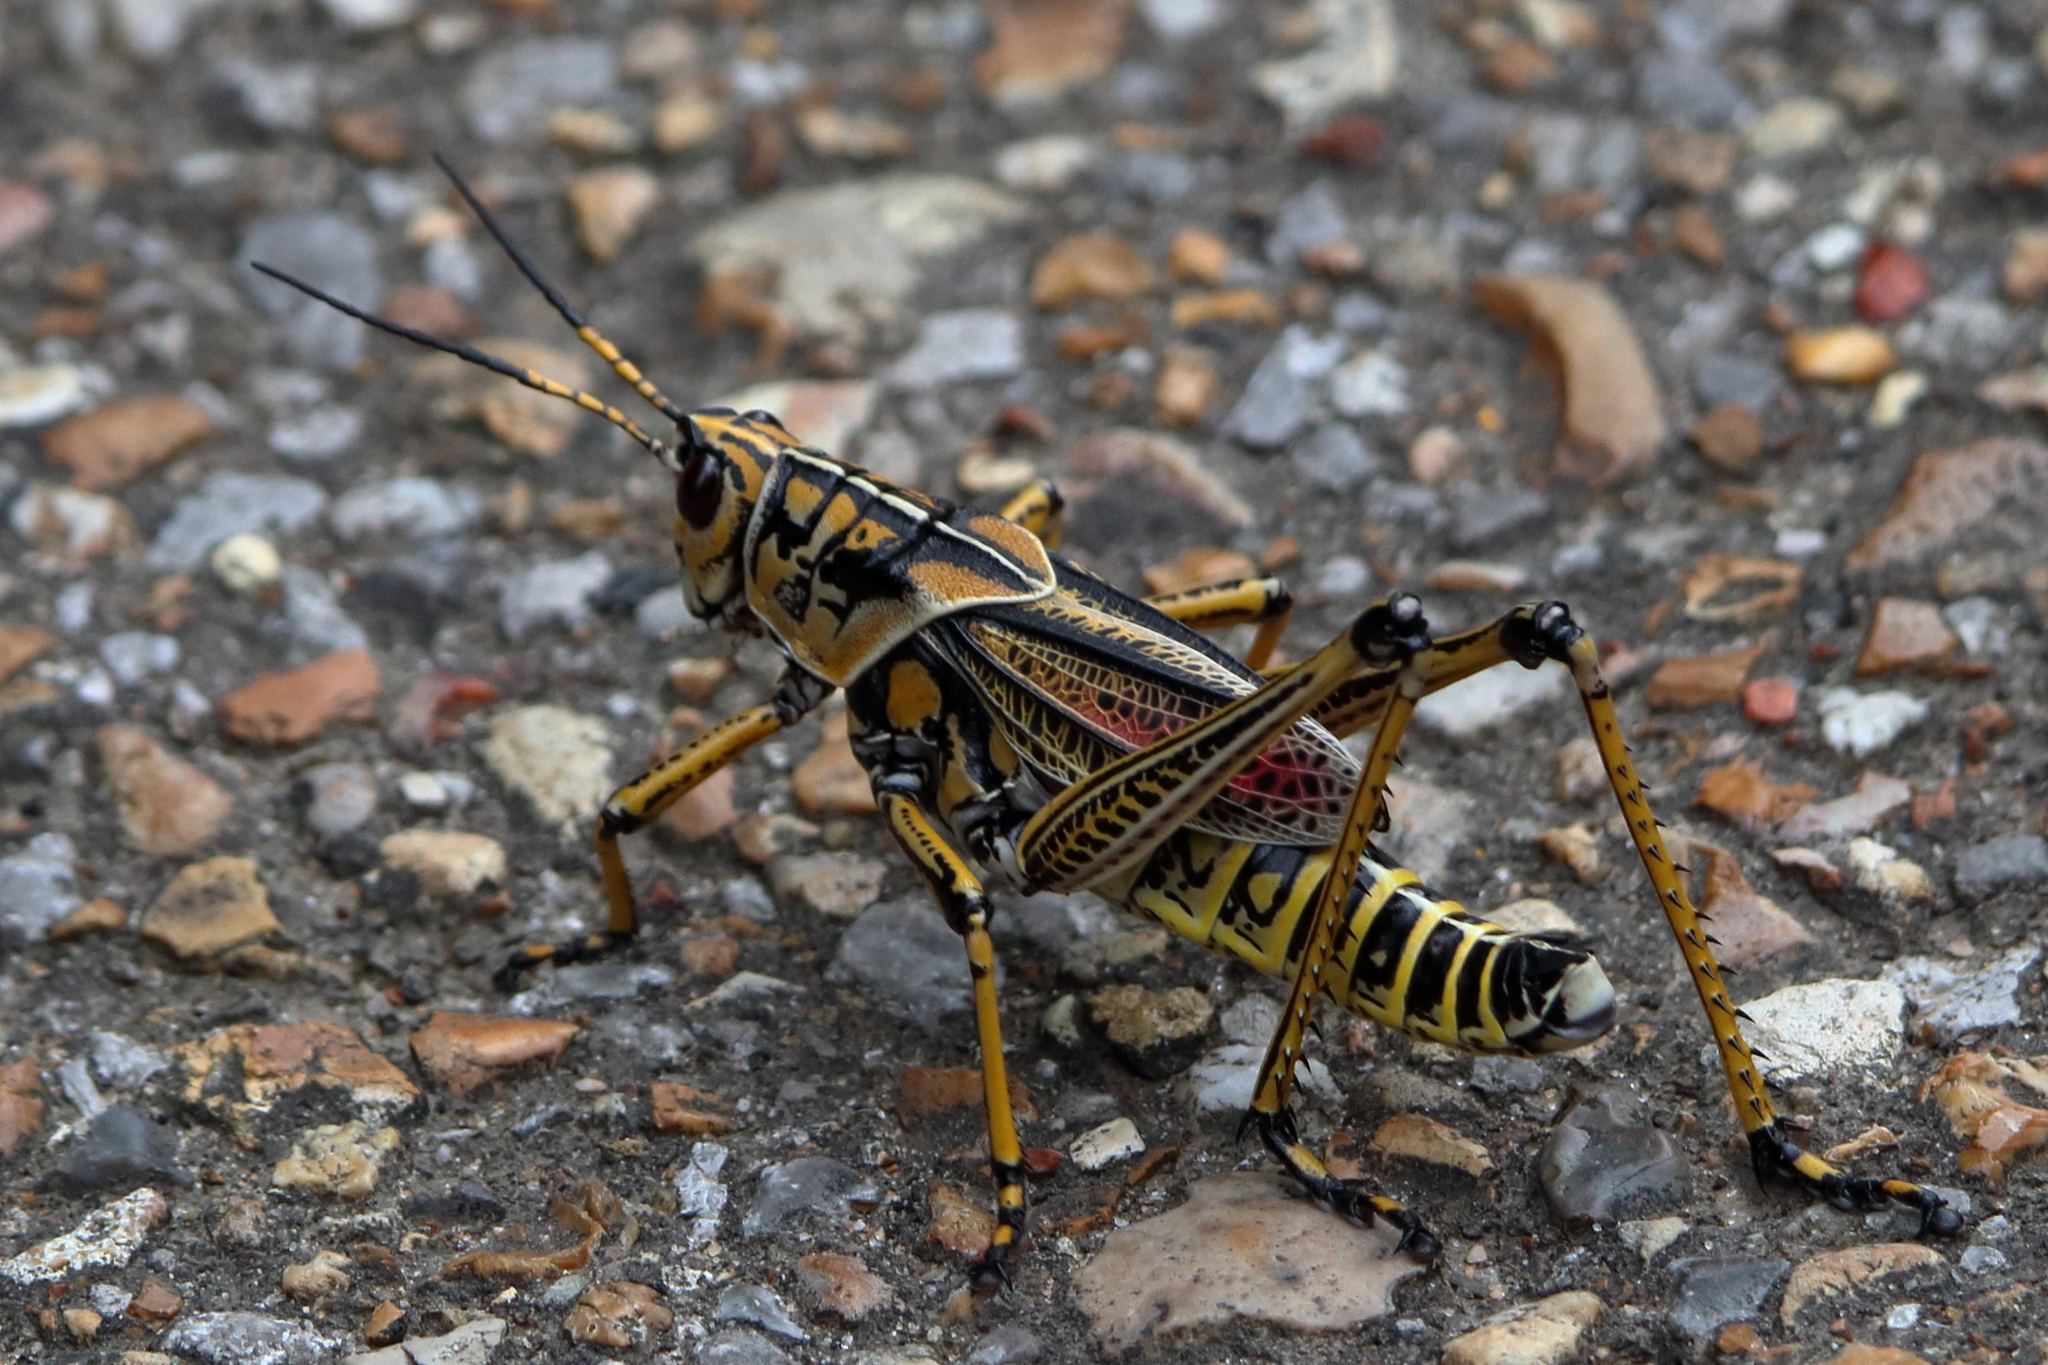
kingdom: Animalia
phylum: Arthropoda
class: Insecta
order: Orthoptera
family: Romaleidae
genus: Romalea
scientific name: Romalea microptera
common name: Eastern lubber grasshopper
